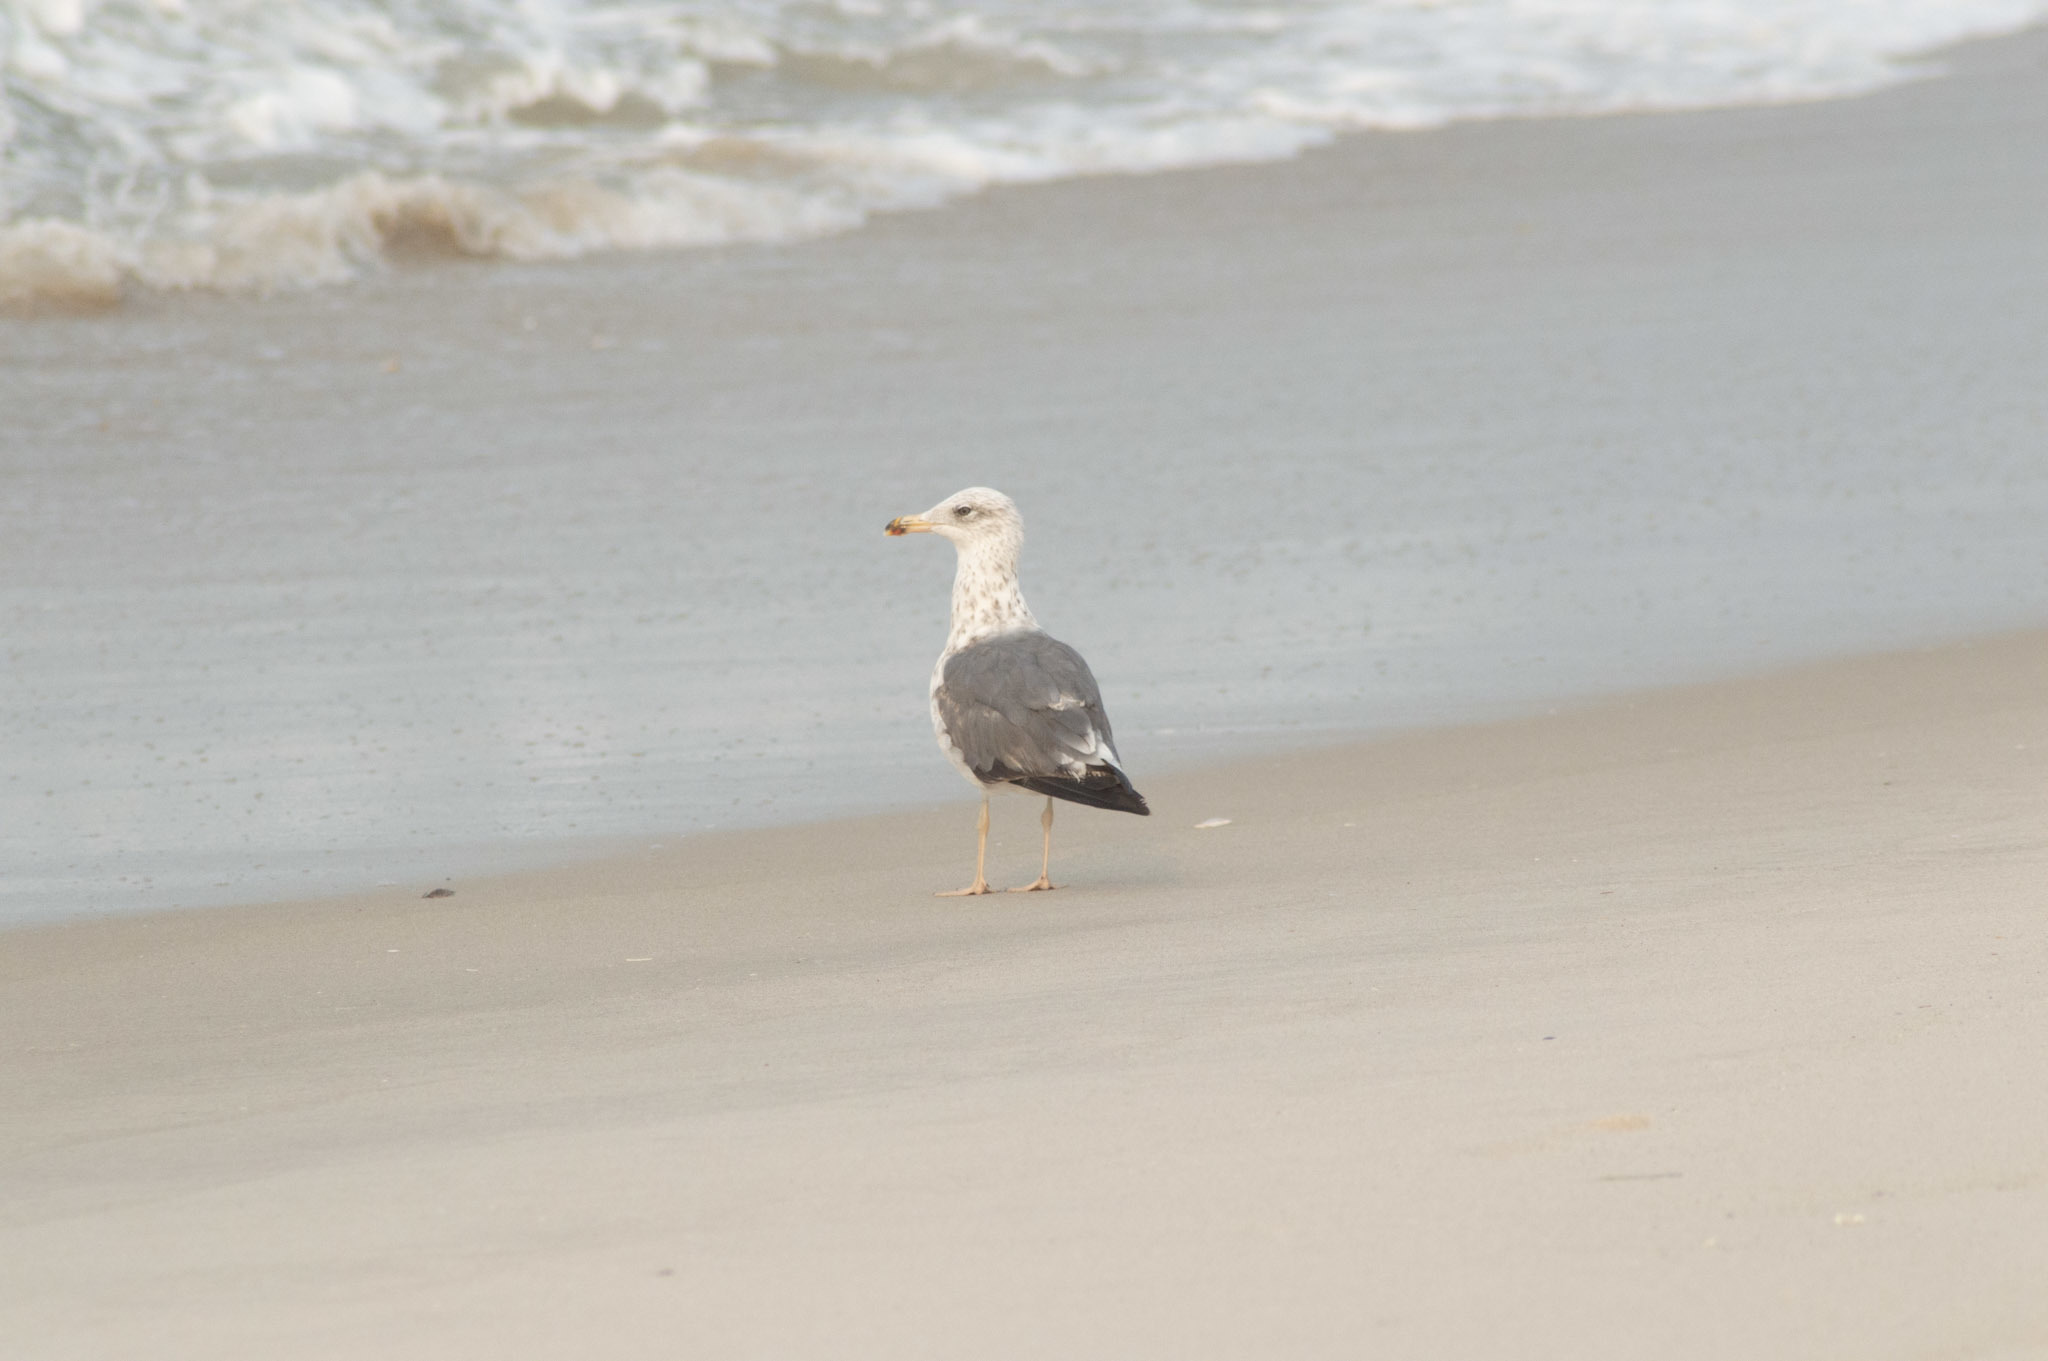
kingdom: Animalia
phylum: Chordata
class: Aves
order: Charadriiformes
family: Laridae
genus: Larus
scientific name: Larus fuscus
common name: Lesser black-backed gull
